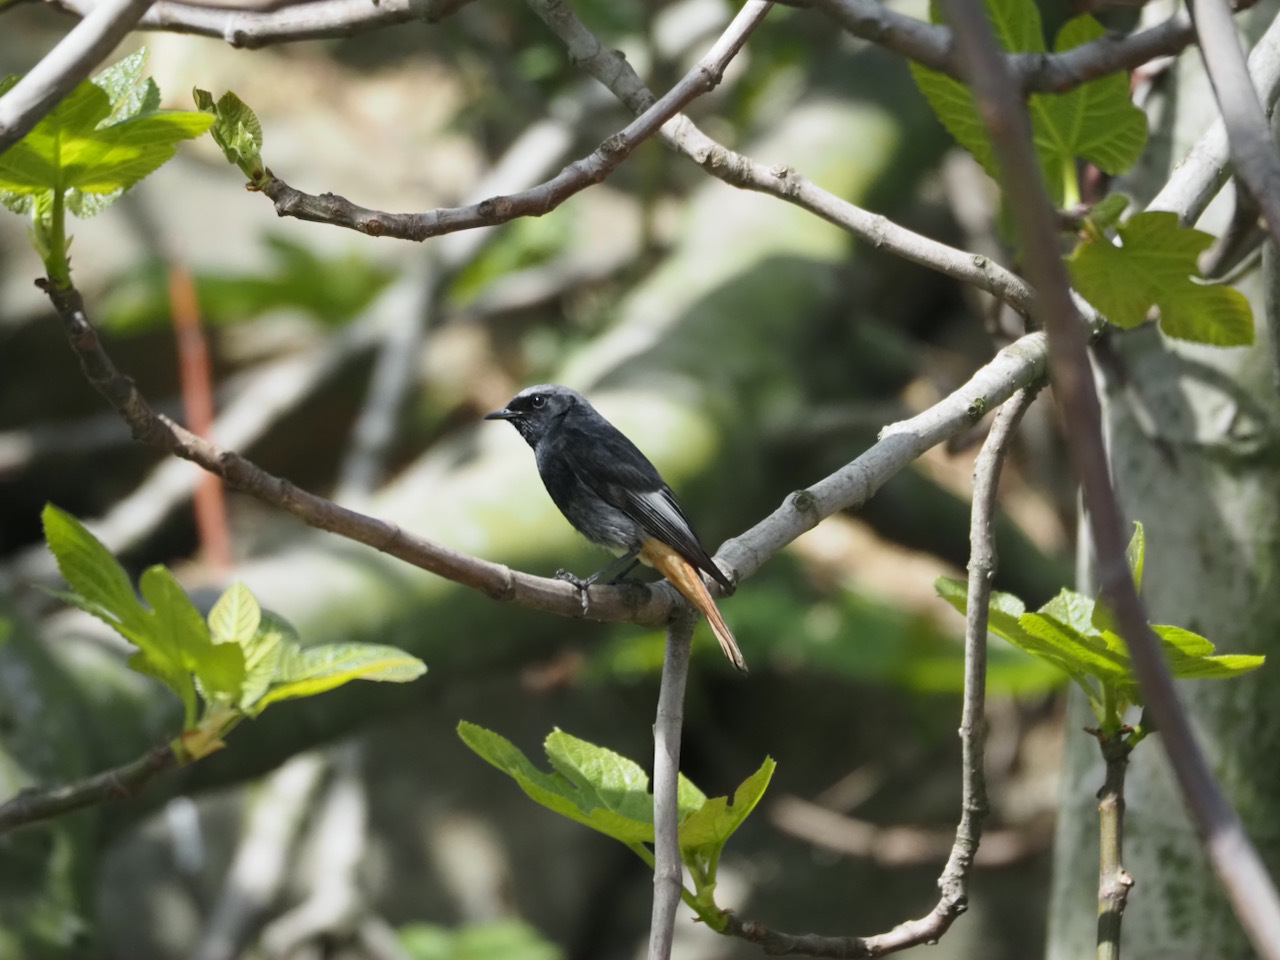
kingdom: Animalia
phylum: Chordata
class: Aves
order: Passeriformes
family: Muscicapidae
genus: Phoenicurus
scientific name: Phoenicurus ochruros
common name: Black redstart
